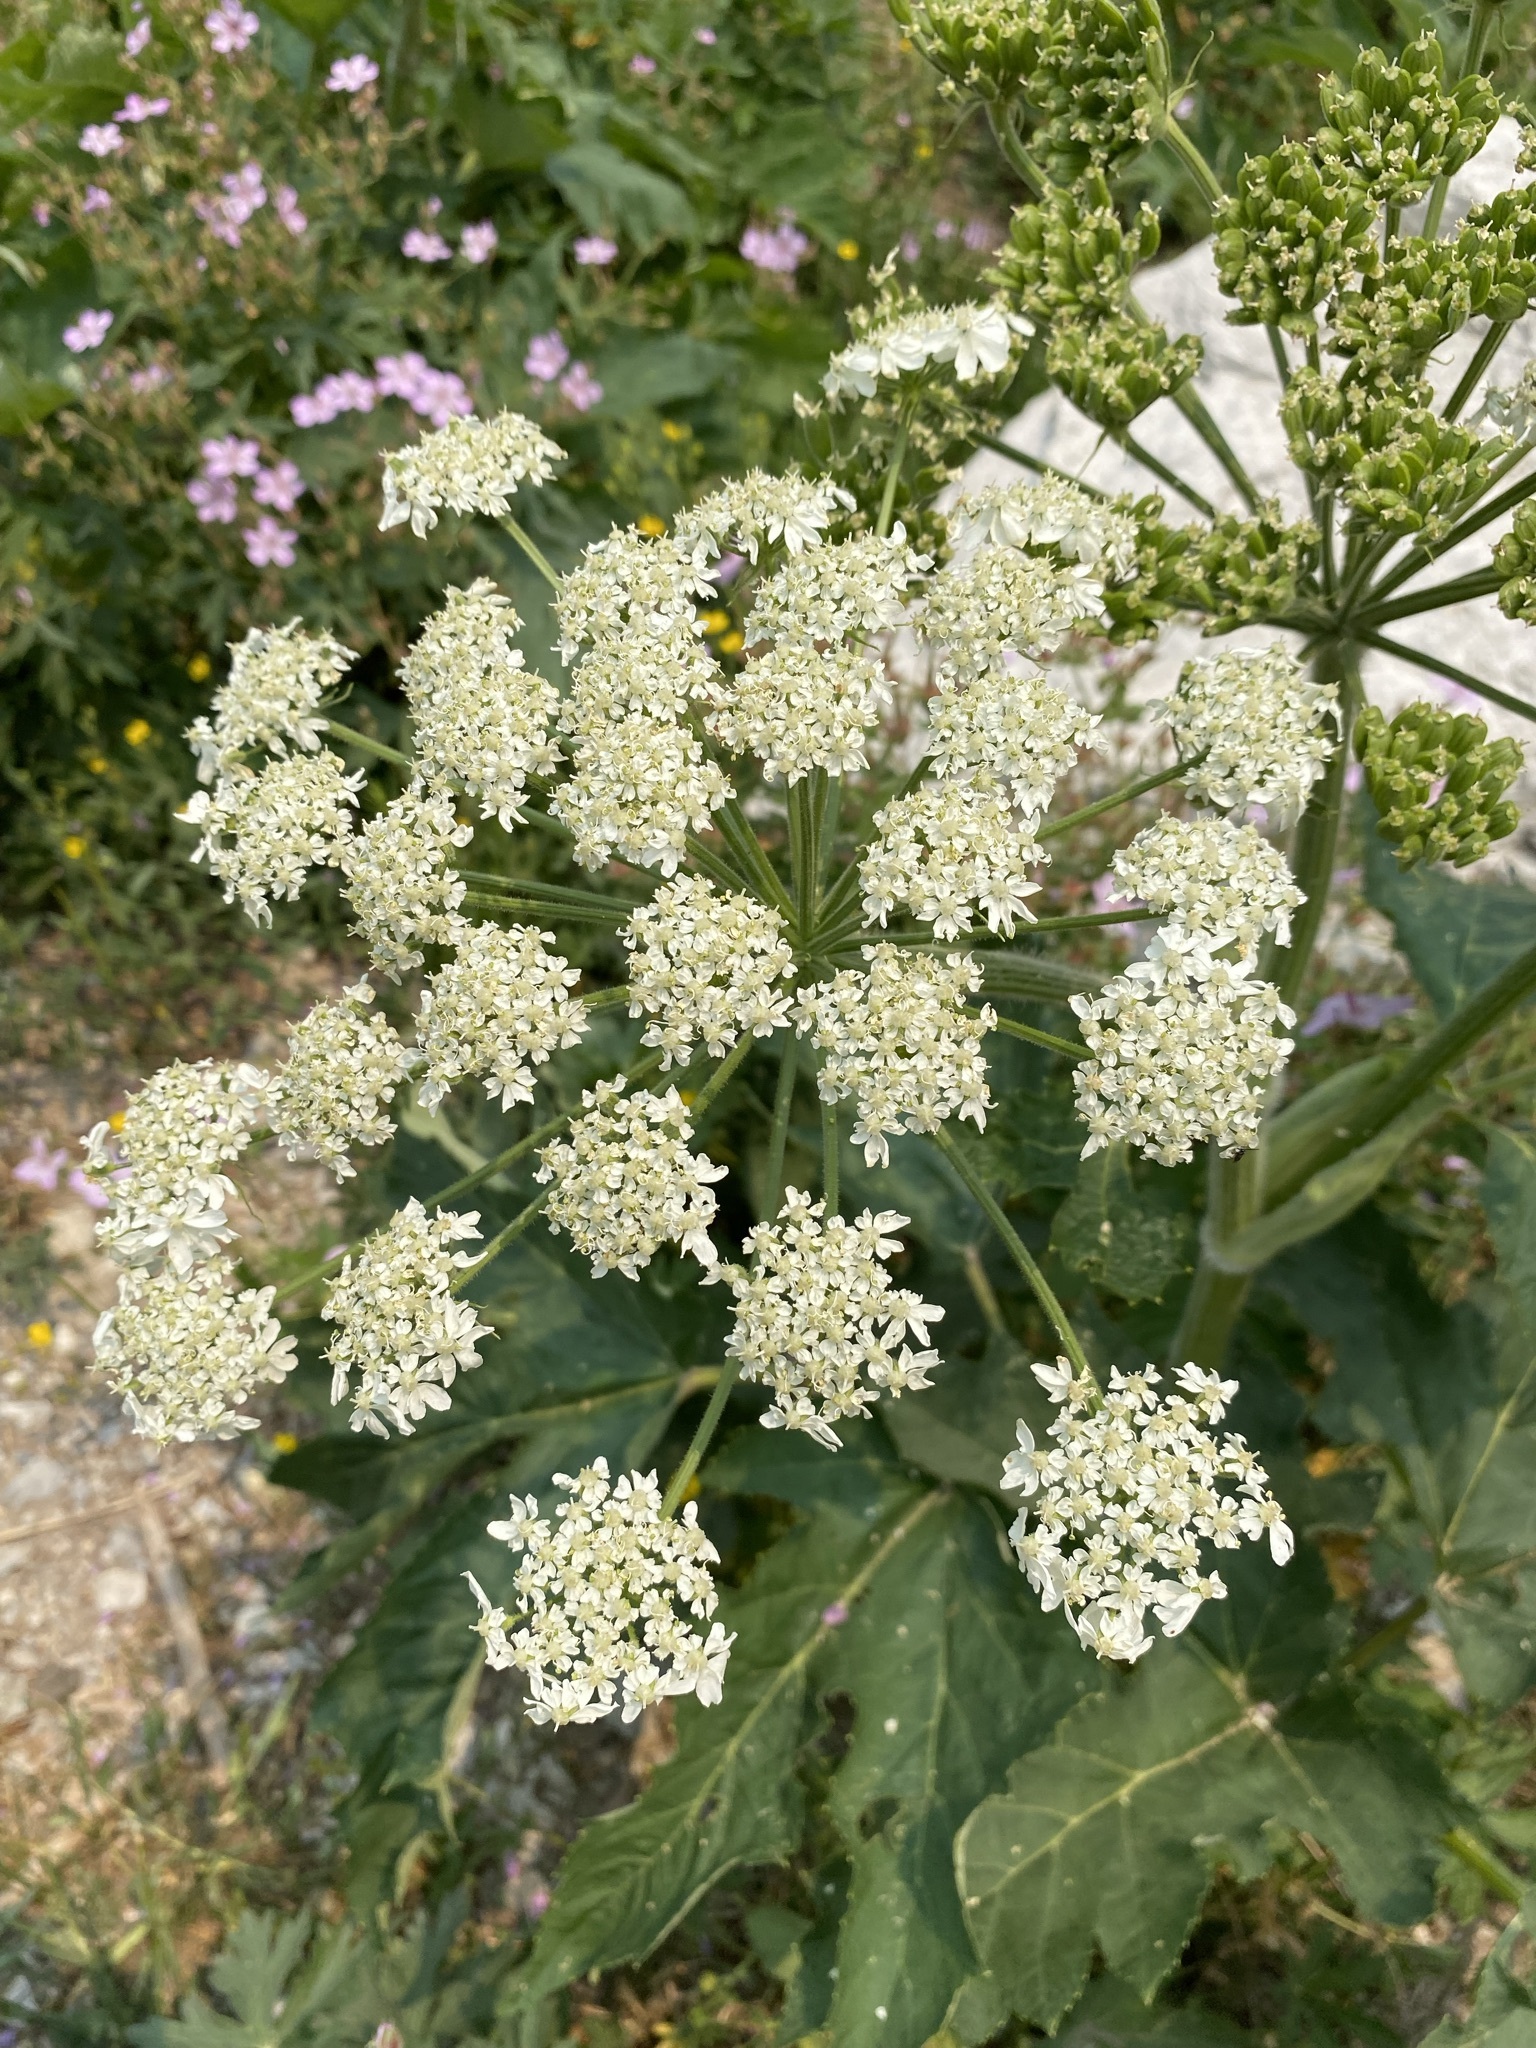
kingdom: Plantae
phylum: Tracheophyta
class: Magnoliopsida
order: Apiales
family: Apiaceae
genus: Heracleum
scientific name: Heracleum maximum
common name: American cow parsnip
